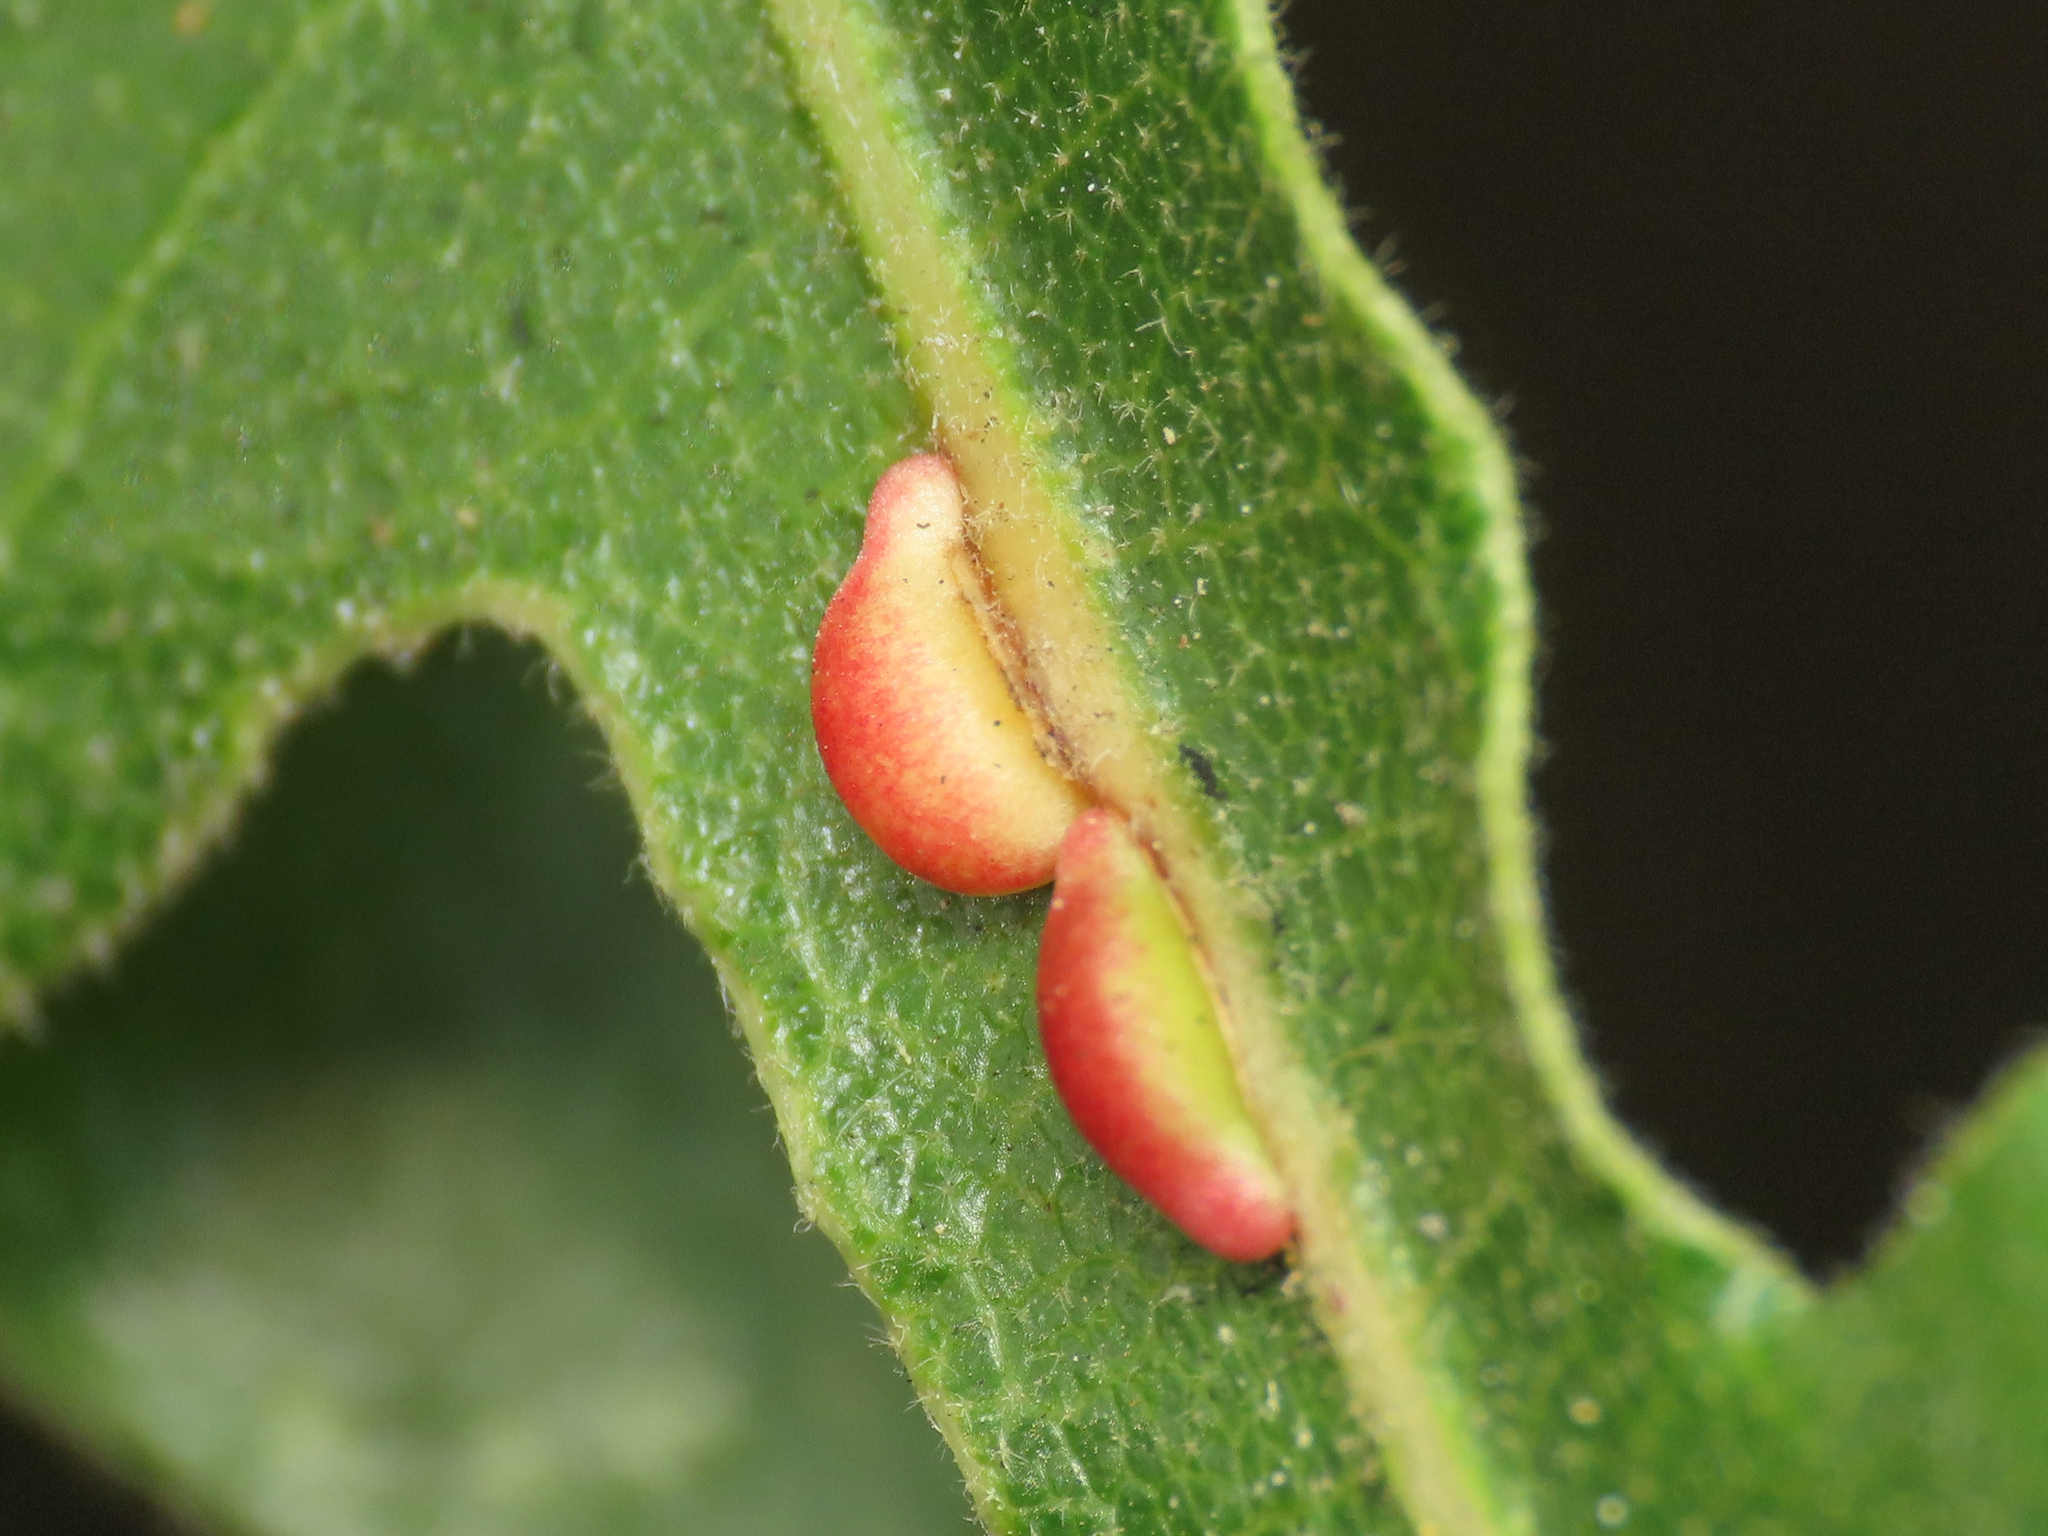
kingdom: Animalia
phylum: Arthropoda
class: Insecta
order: Hymenoptera
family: Cynipidae
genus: Neuroterus
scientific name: Neuroterus saliens
